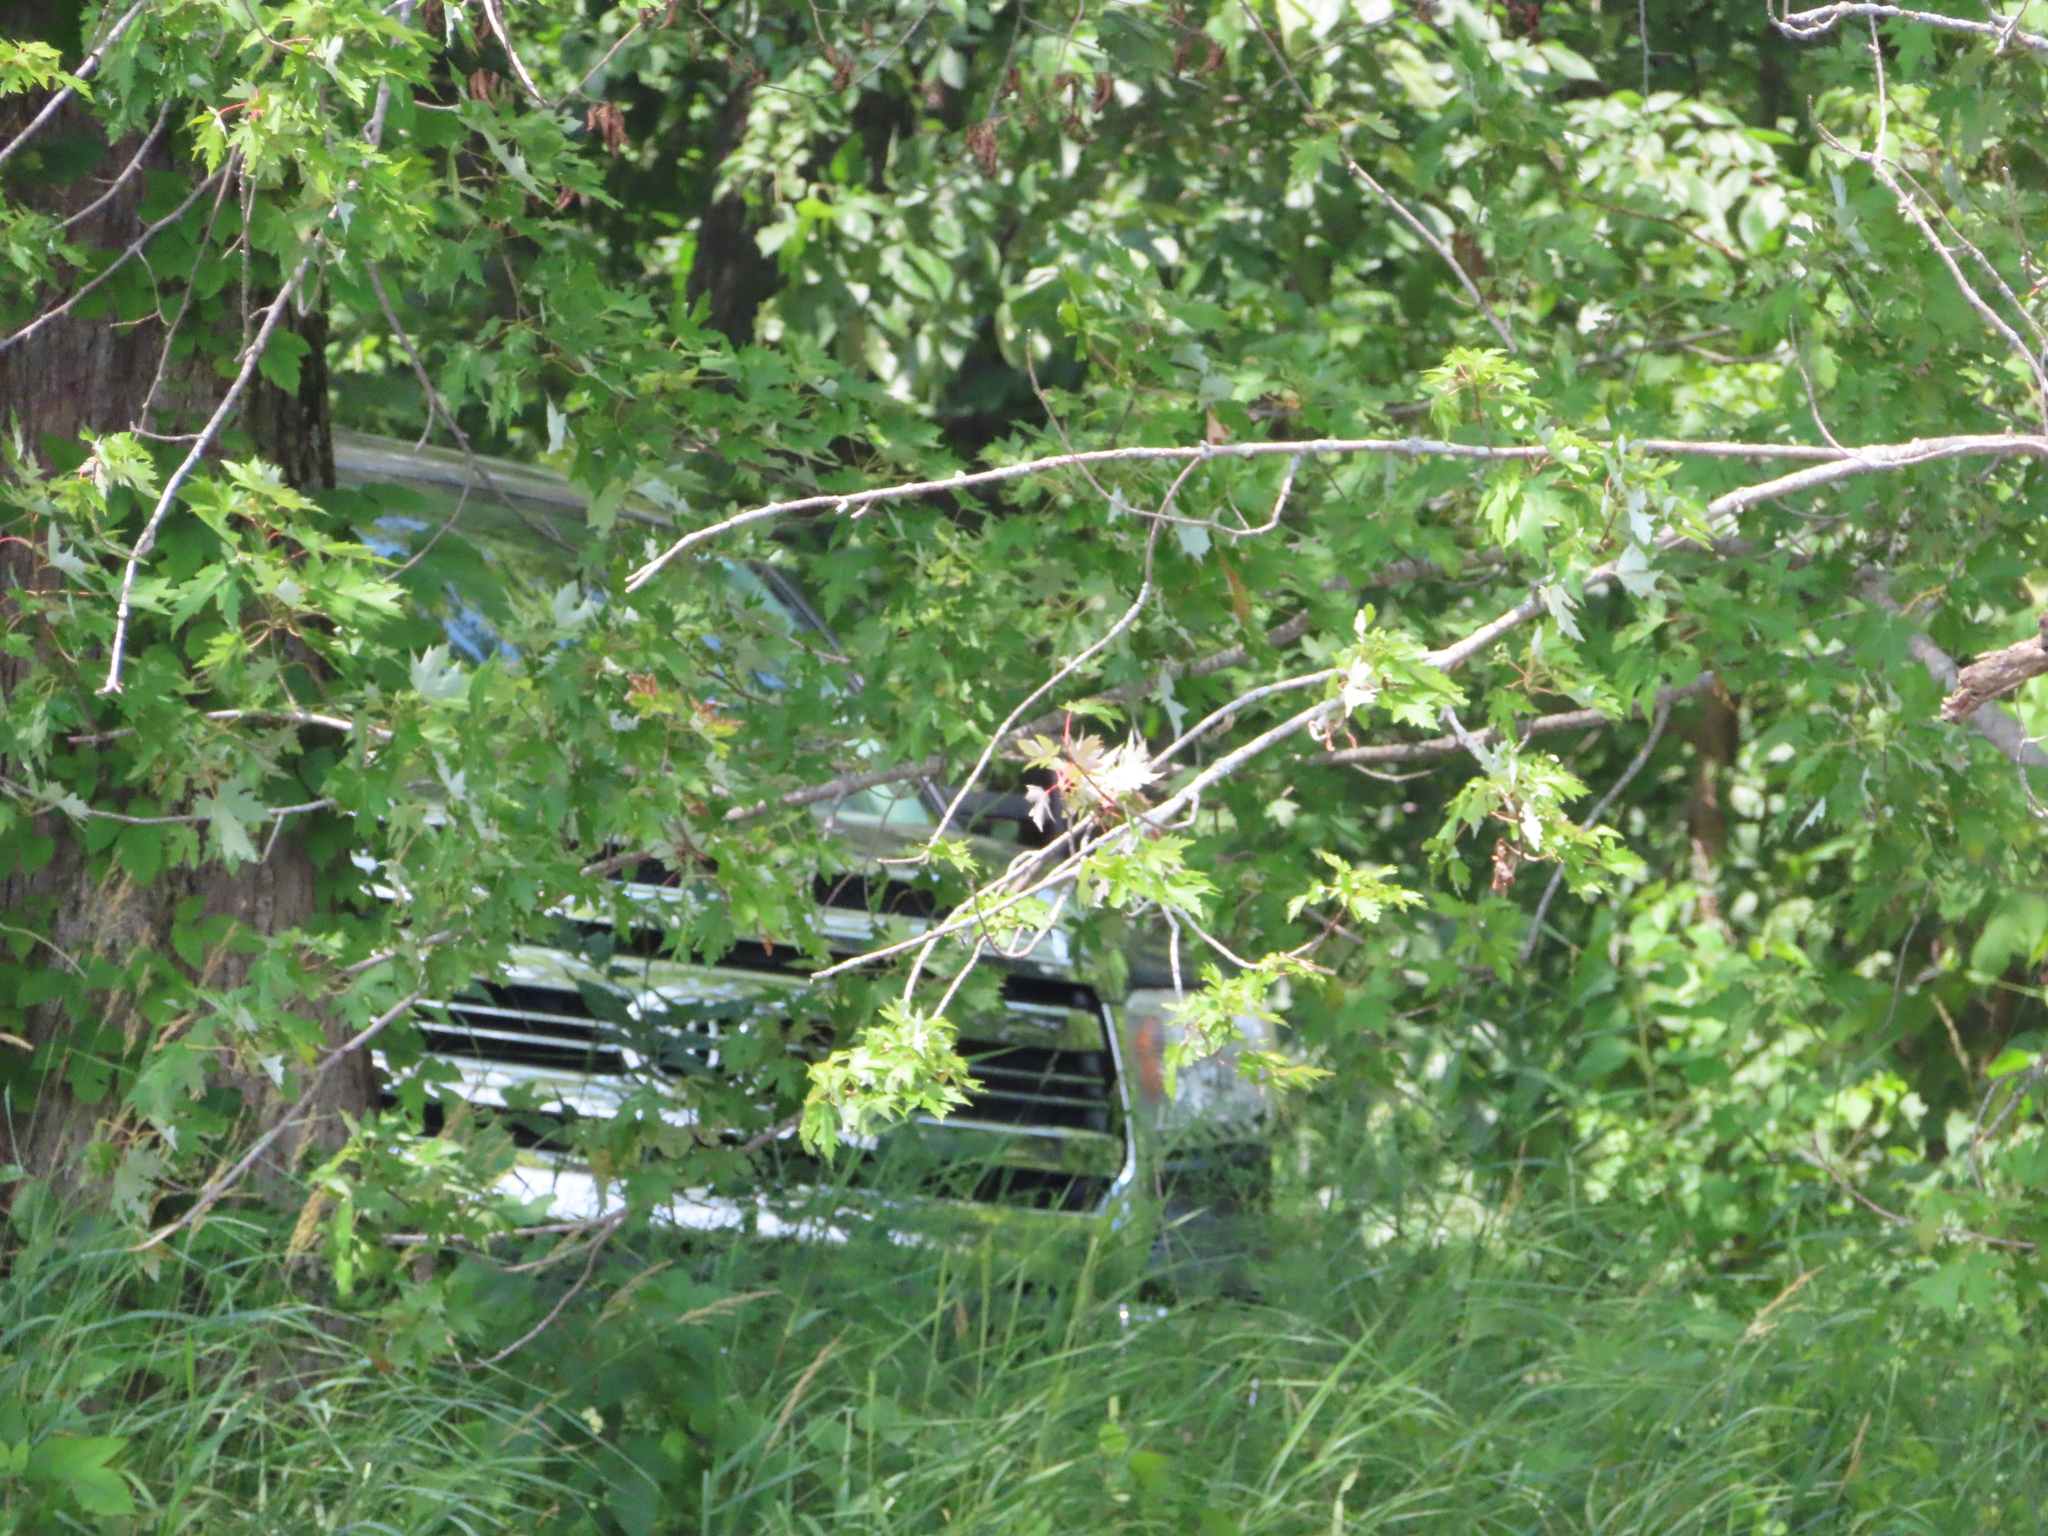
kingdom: Plantae
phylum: Tracheophyta
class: Magnoliopsida
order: Sapindales
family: Sapindaceae
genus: Acer
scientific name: Acer saccharinum
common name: Silver maple
